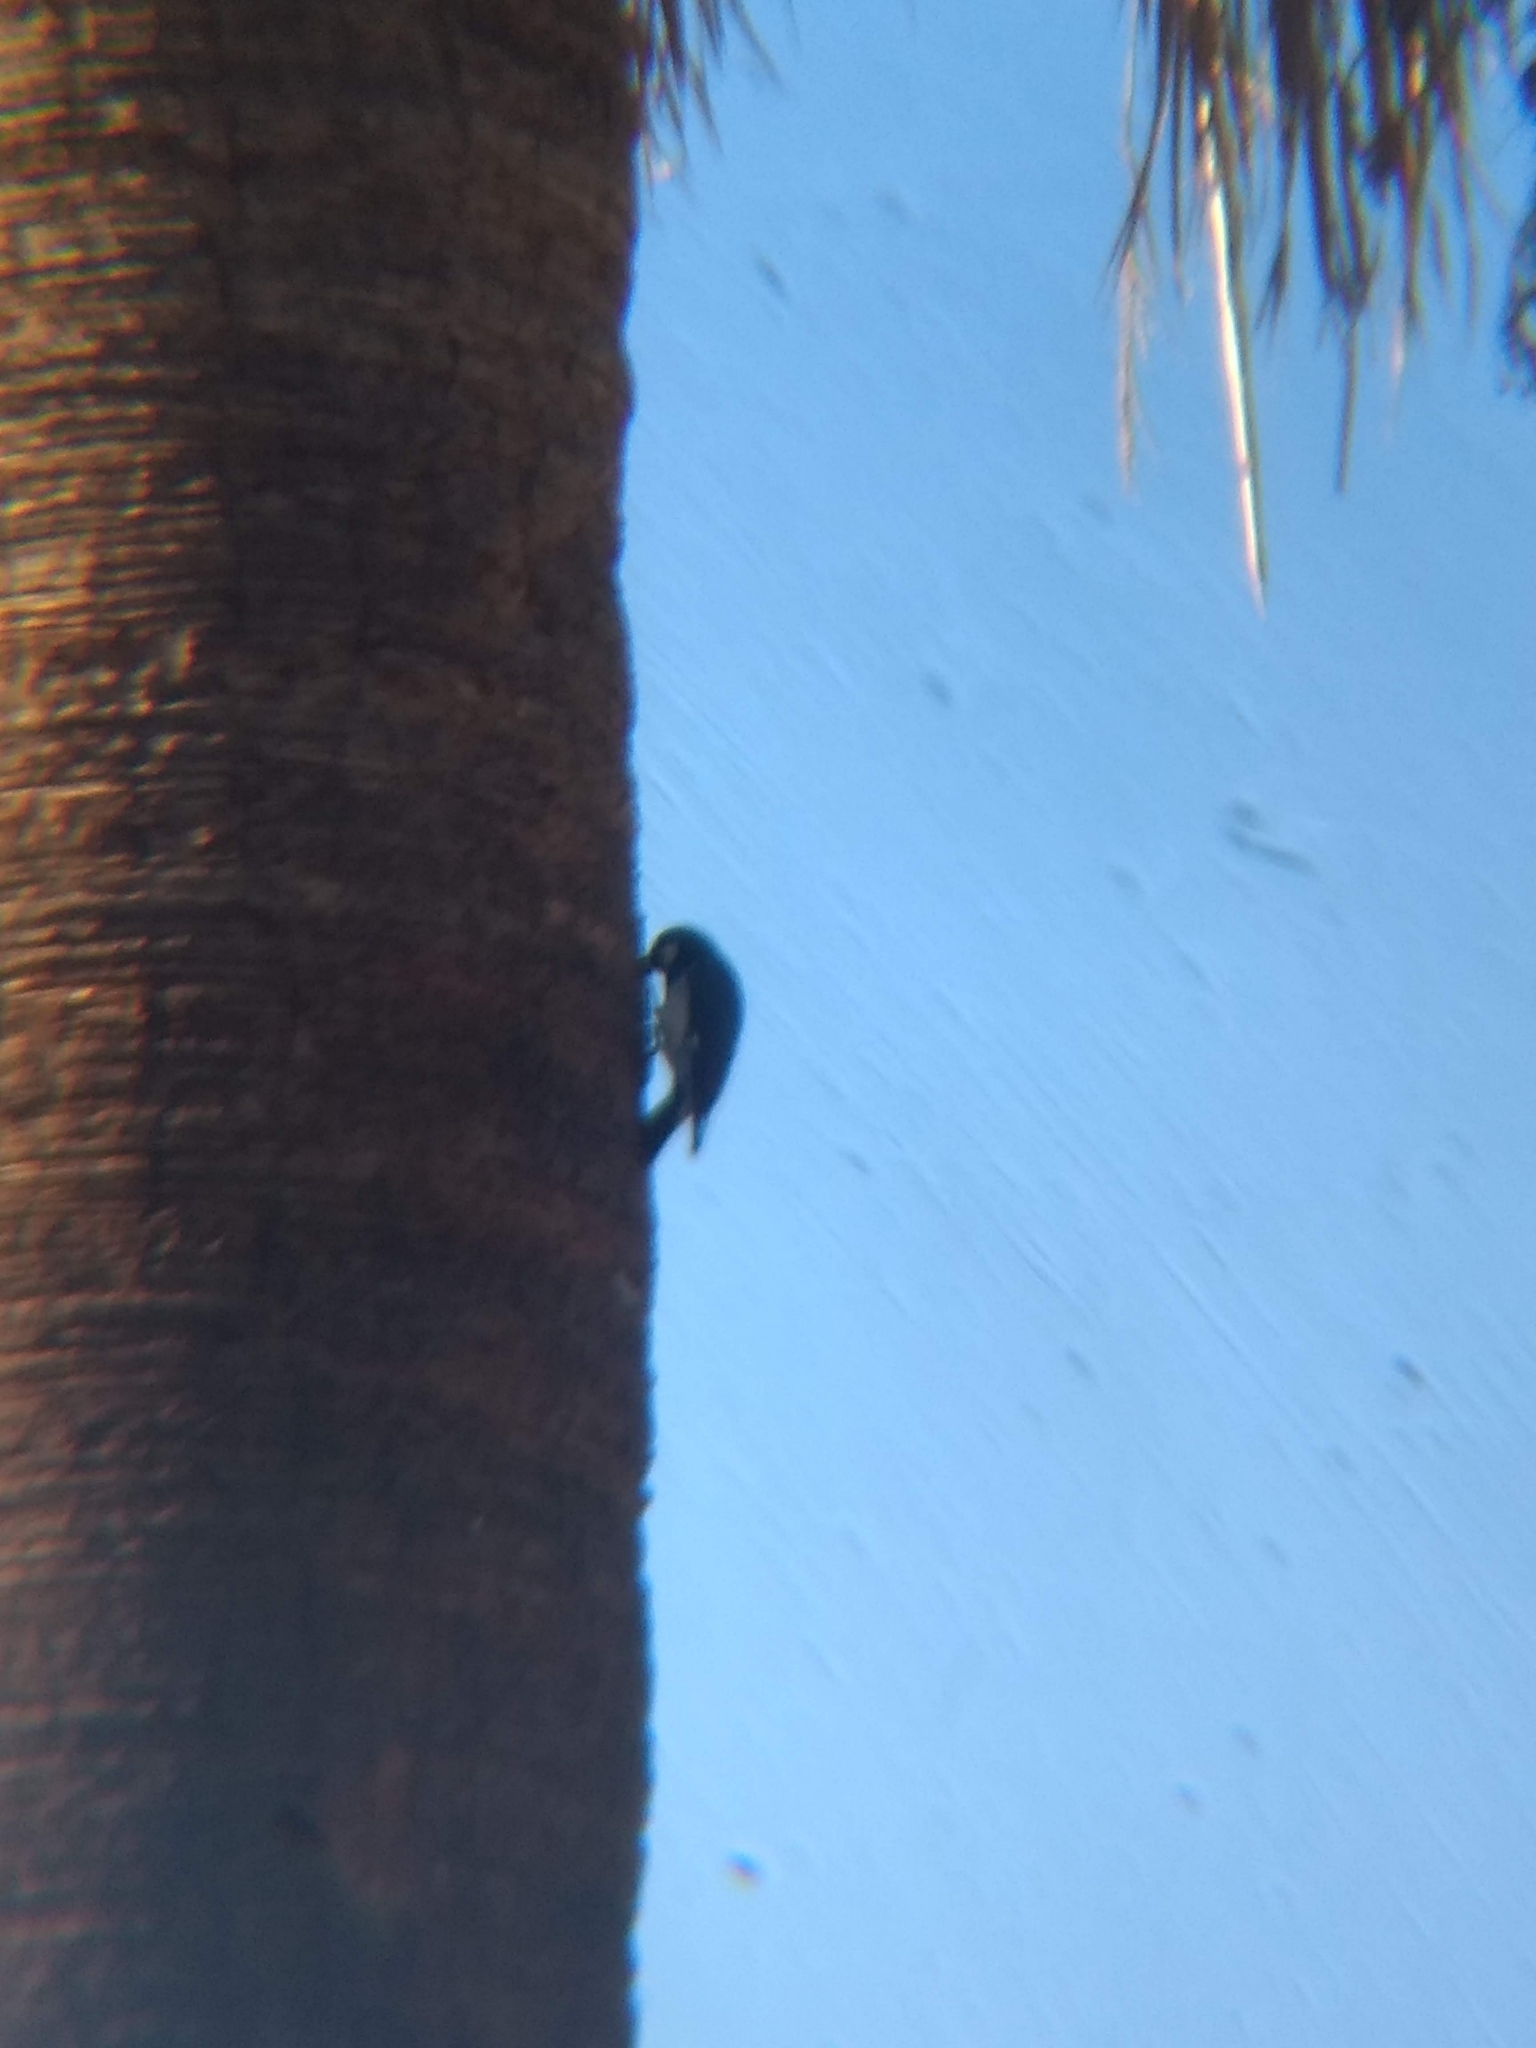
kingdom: Animalia
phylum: Chordata
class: Aves
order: Piciformes
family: Picidae
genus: Melanerpes
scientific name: Melanerpes formicivorus
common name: Acorn woodpecker
